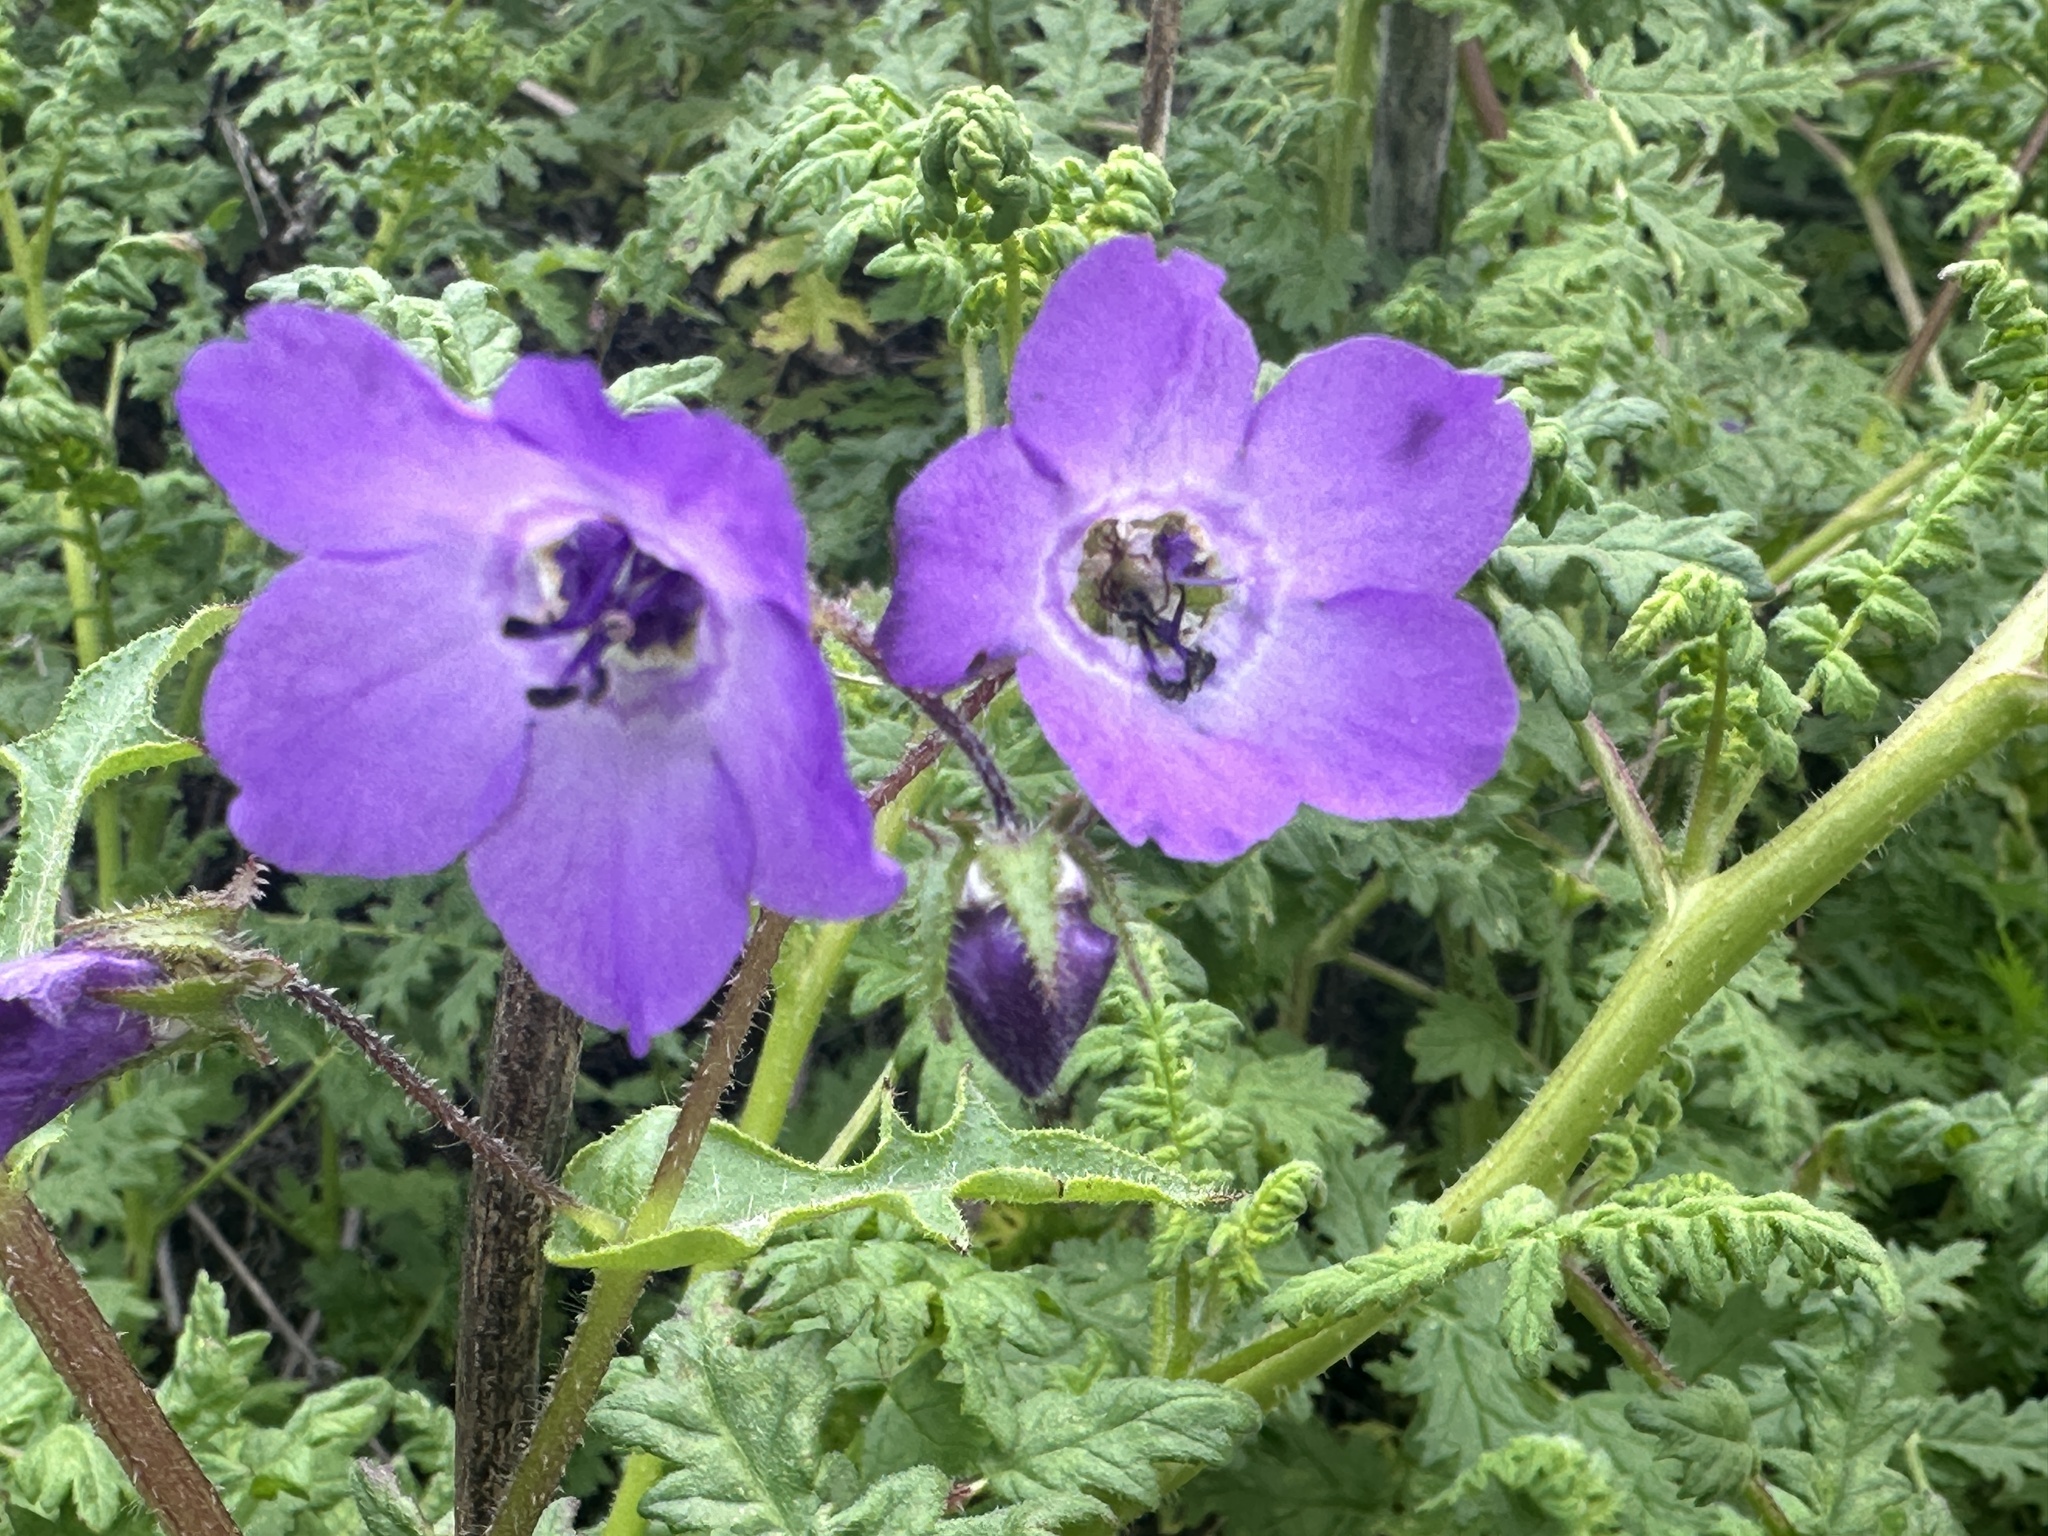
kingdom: Plantae
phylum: Tracheophyta
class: Magnoliopsida
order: Boraginales
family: Hydrophyllaceae
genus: Pholistoma
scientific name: Pholistoma auritum
